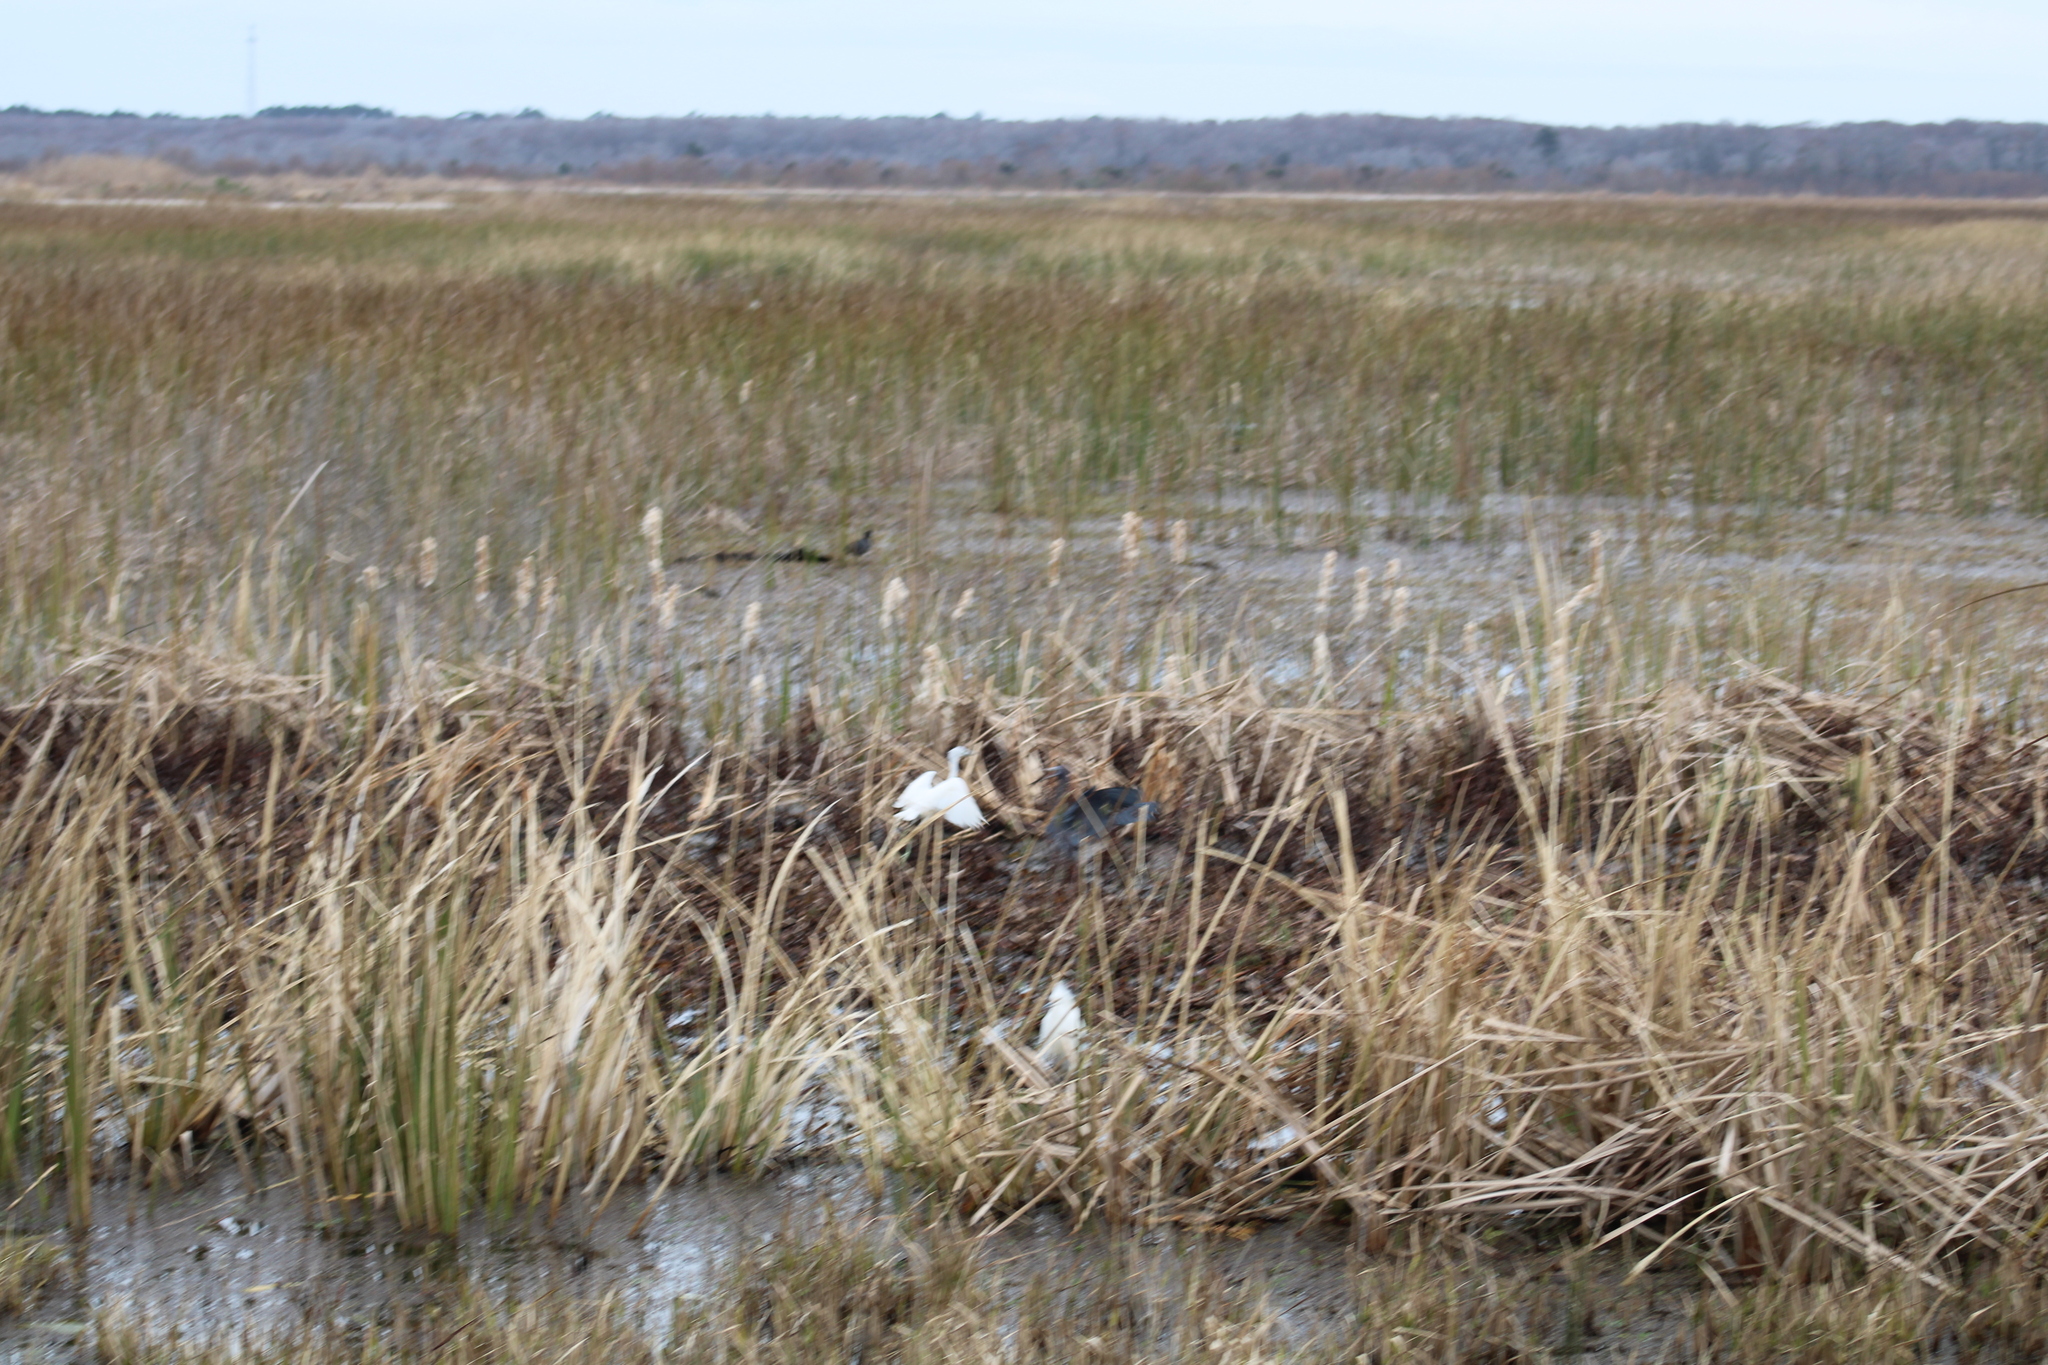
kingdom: Animalia
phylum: Chordata
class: Aves
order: Pelecaniformes
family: Ardeidae
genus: Egretta
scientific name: Egretta caerulea
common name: Little blue heron
